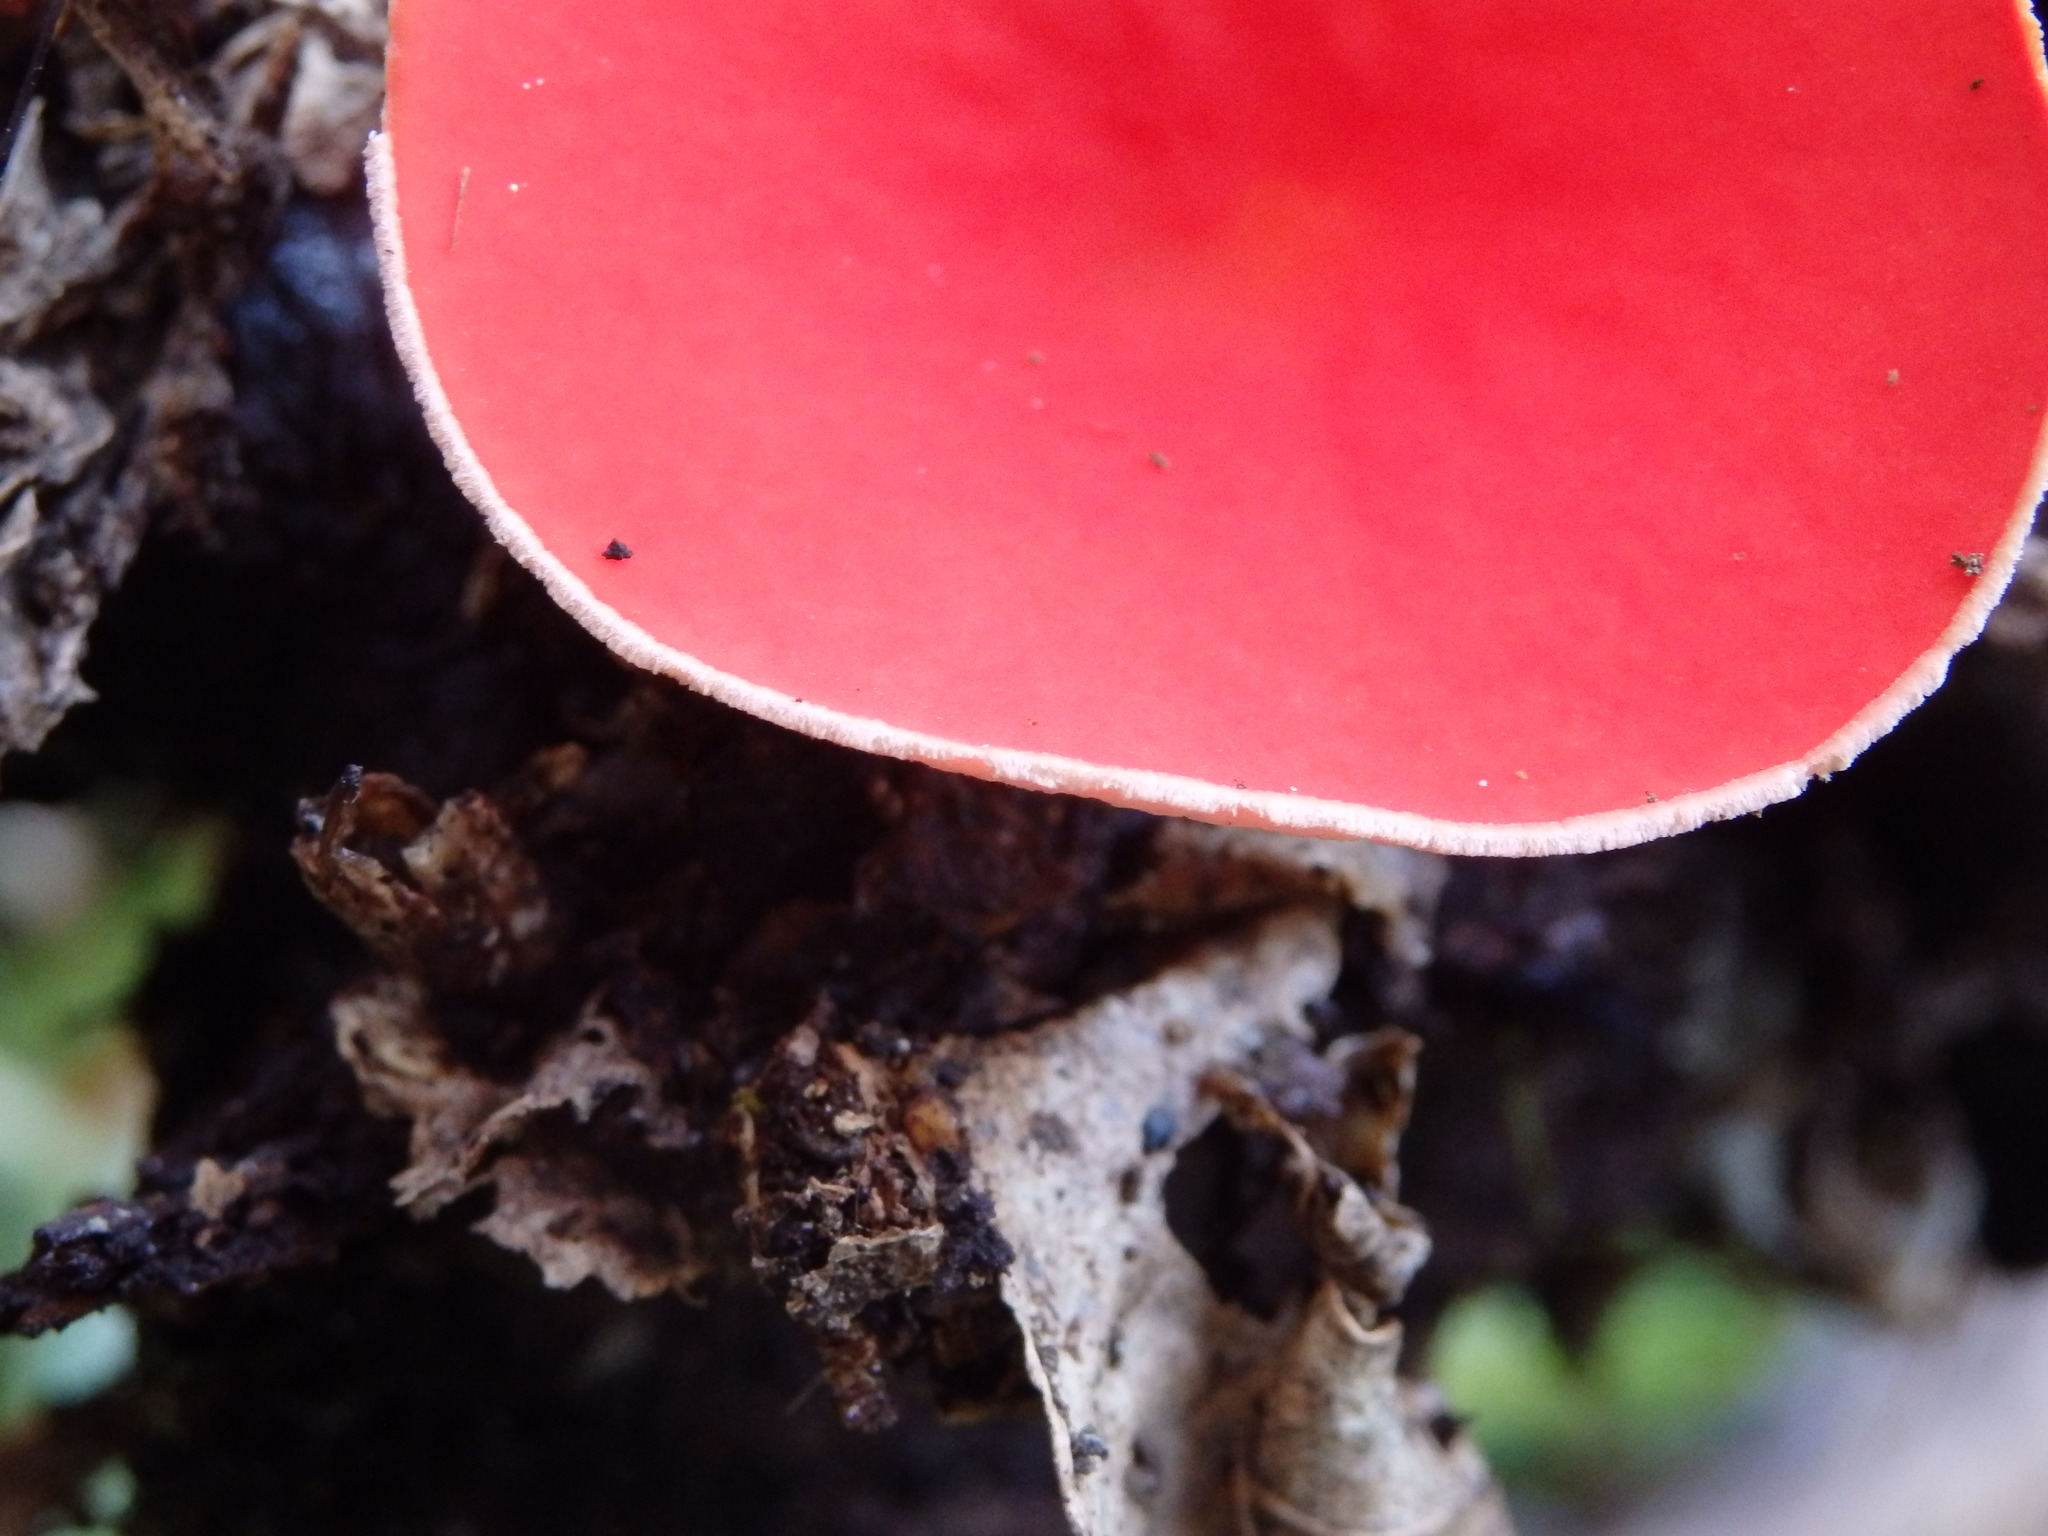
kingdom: Fungi
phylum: Ascomycota
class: Pezizomycetes
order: Pezizales
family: Sarcoscyphaceae
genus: Sarcoscypha
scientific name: Sarcoscypha
